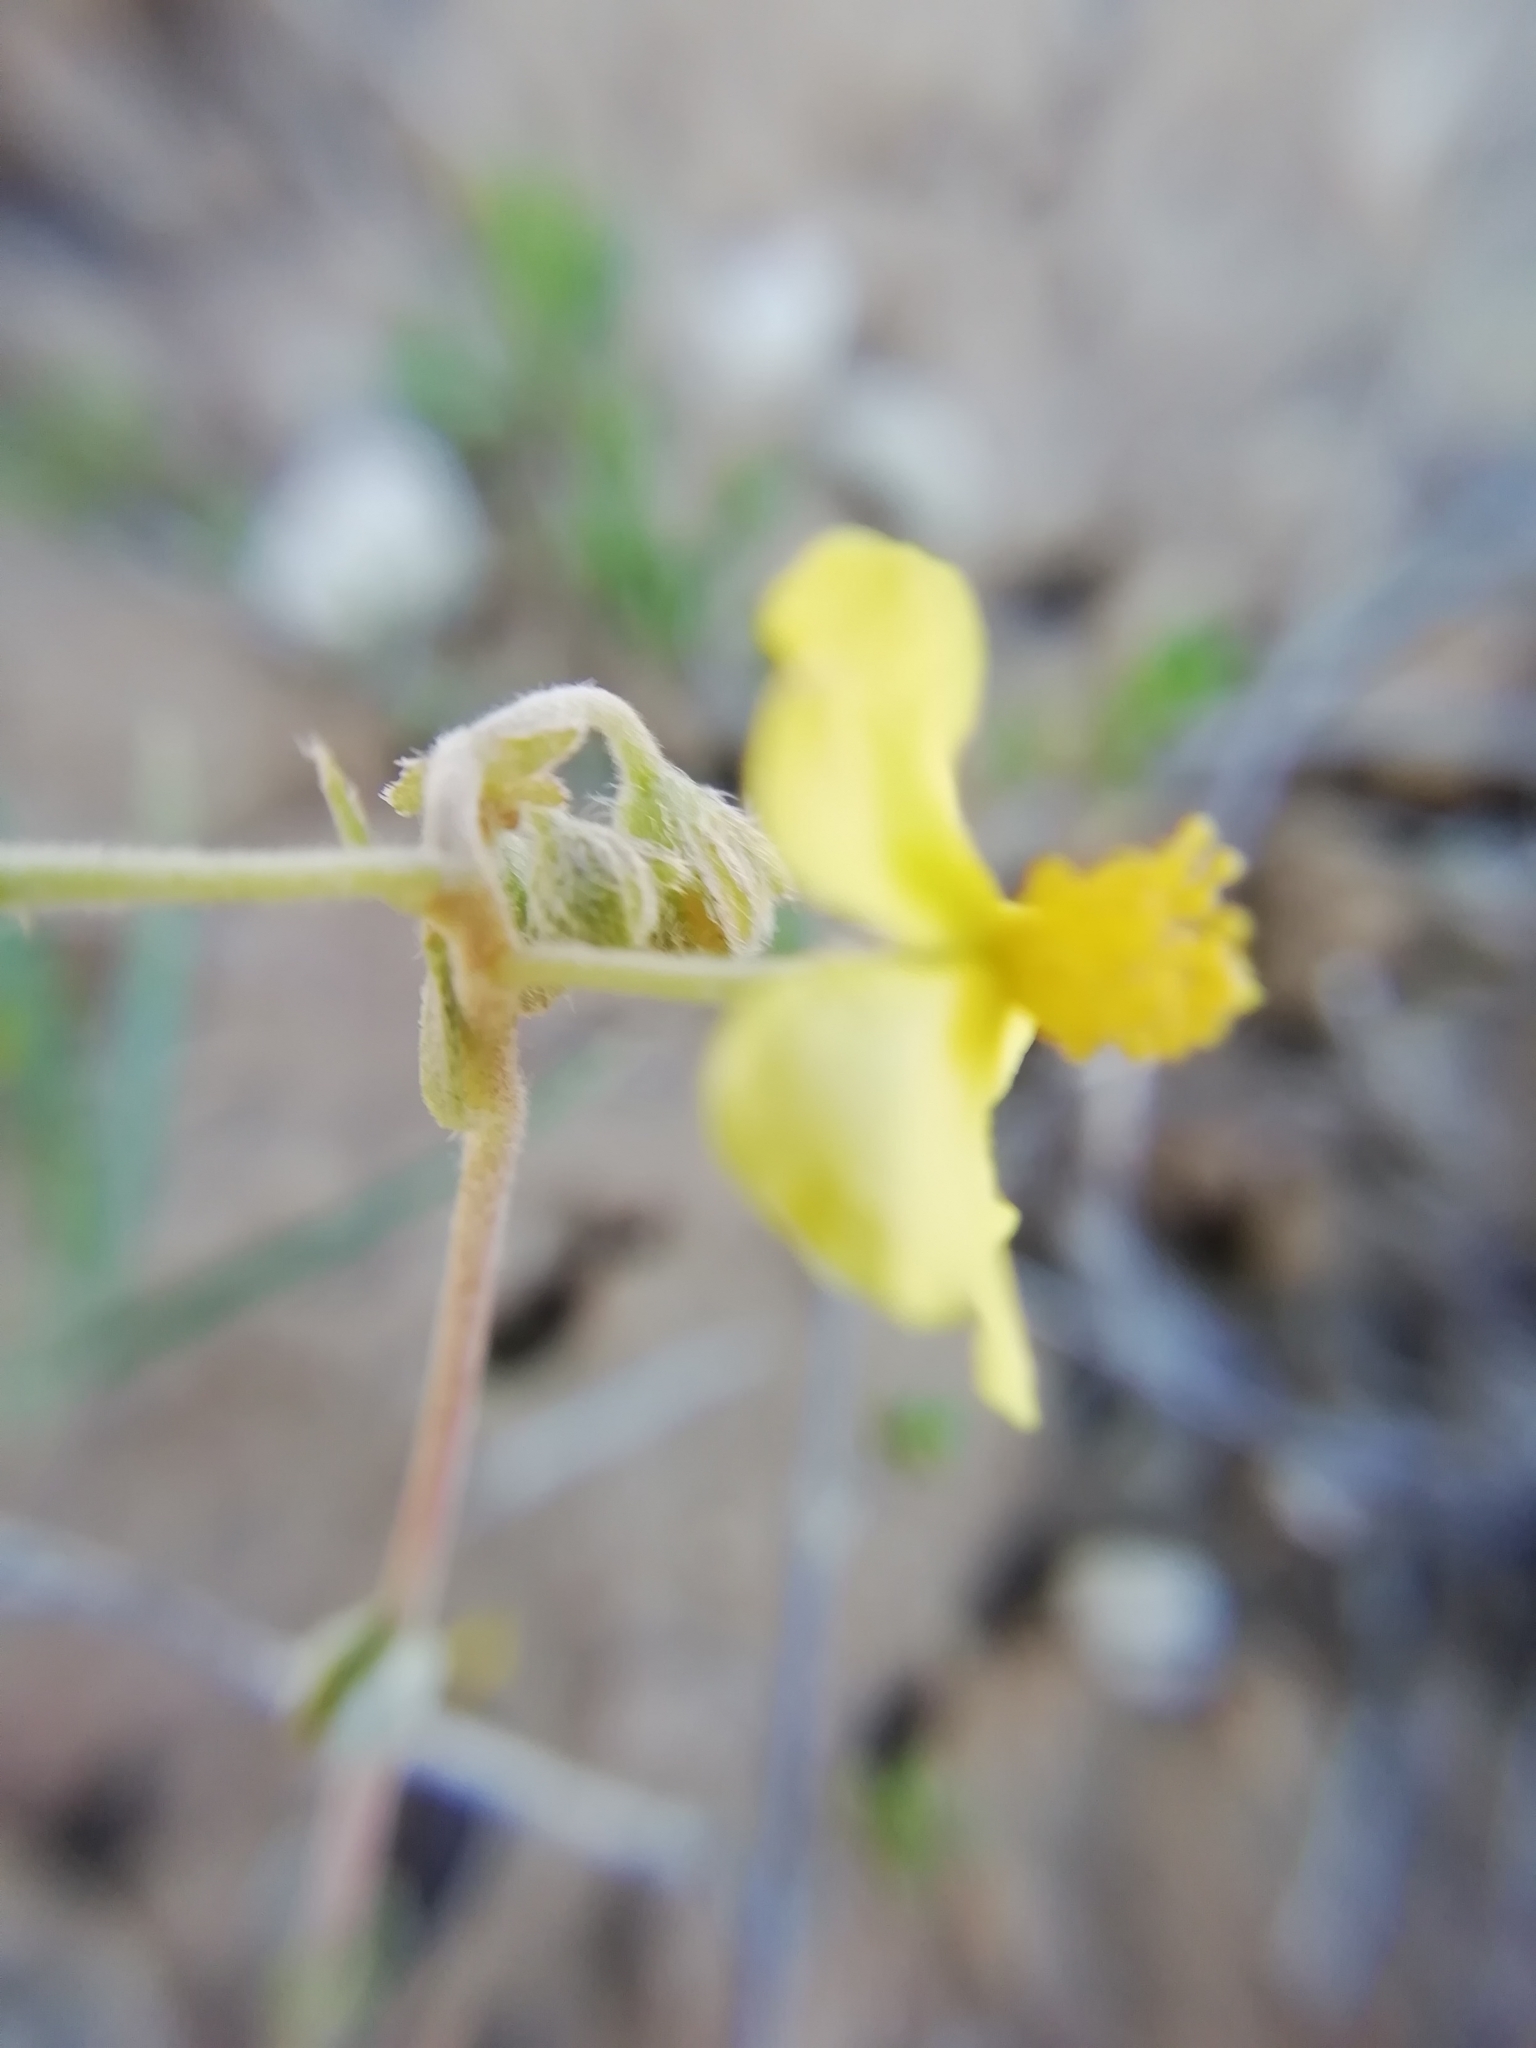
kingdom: Plantae
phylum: Tracheophyta
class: Magnoliopsida
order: Malvales
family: Cistaceae
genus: Helianthemum
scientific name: Helianthemum canum
